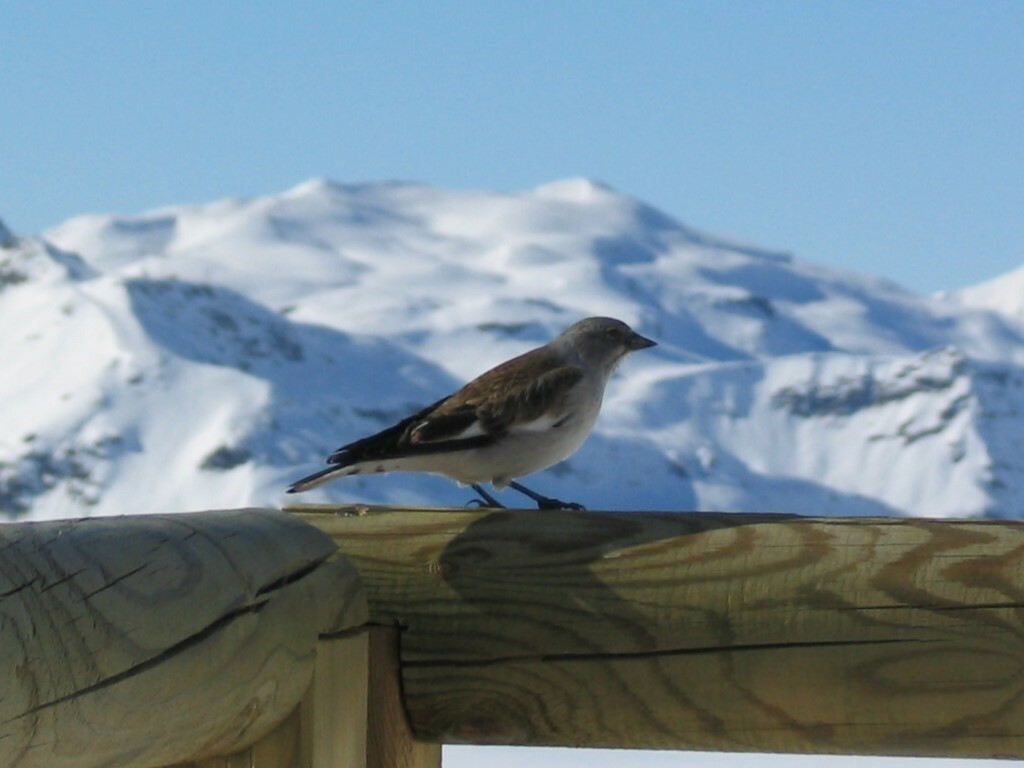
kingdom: Animalia
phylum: Chordata
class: Aves
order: Passeriformes
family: Passeridae
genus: Montifringilla
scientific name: Montifringilla nivalis
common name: White-winged snowfinch
